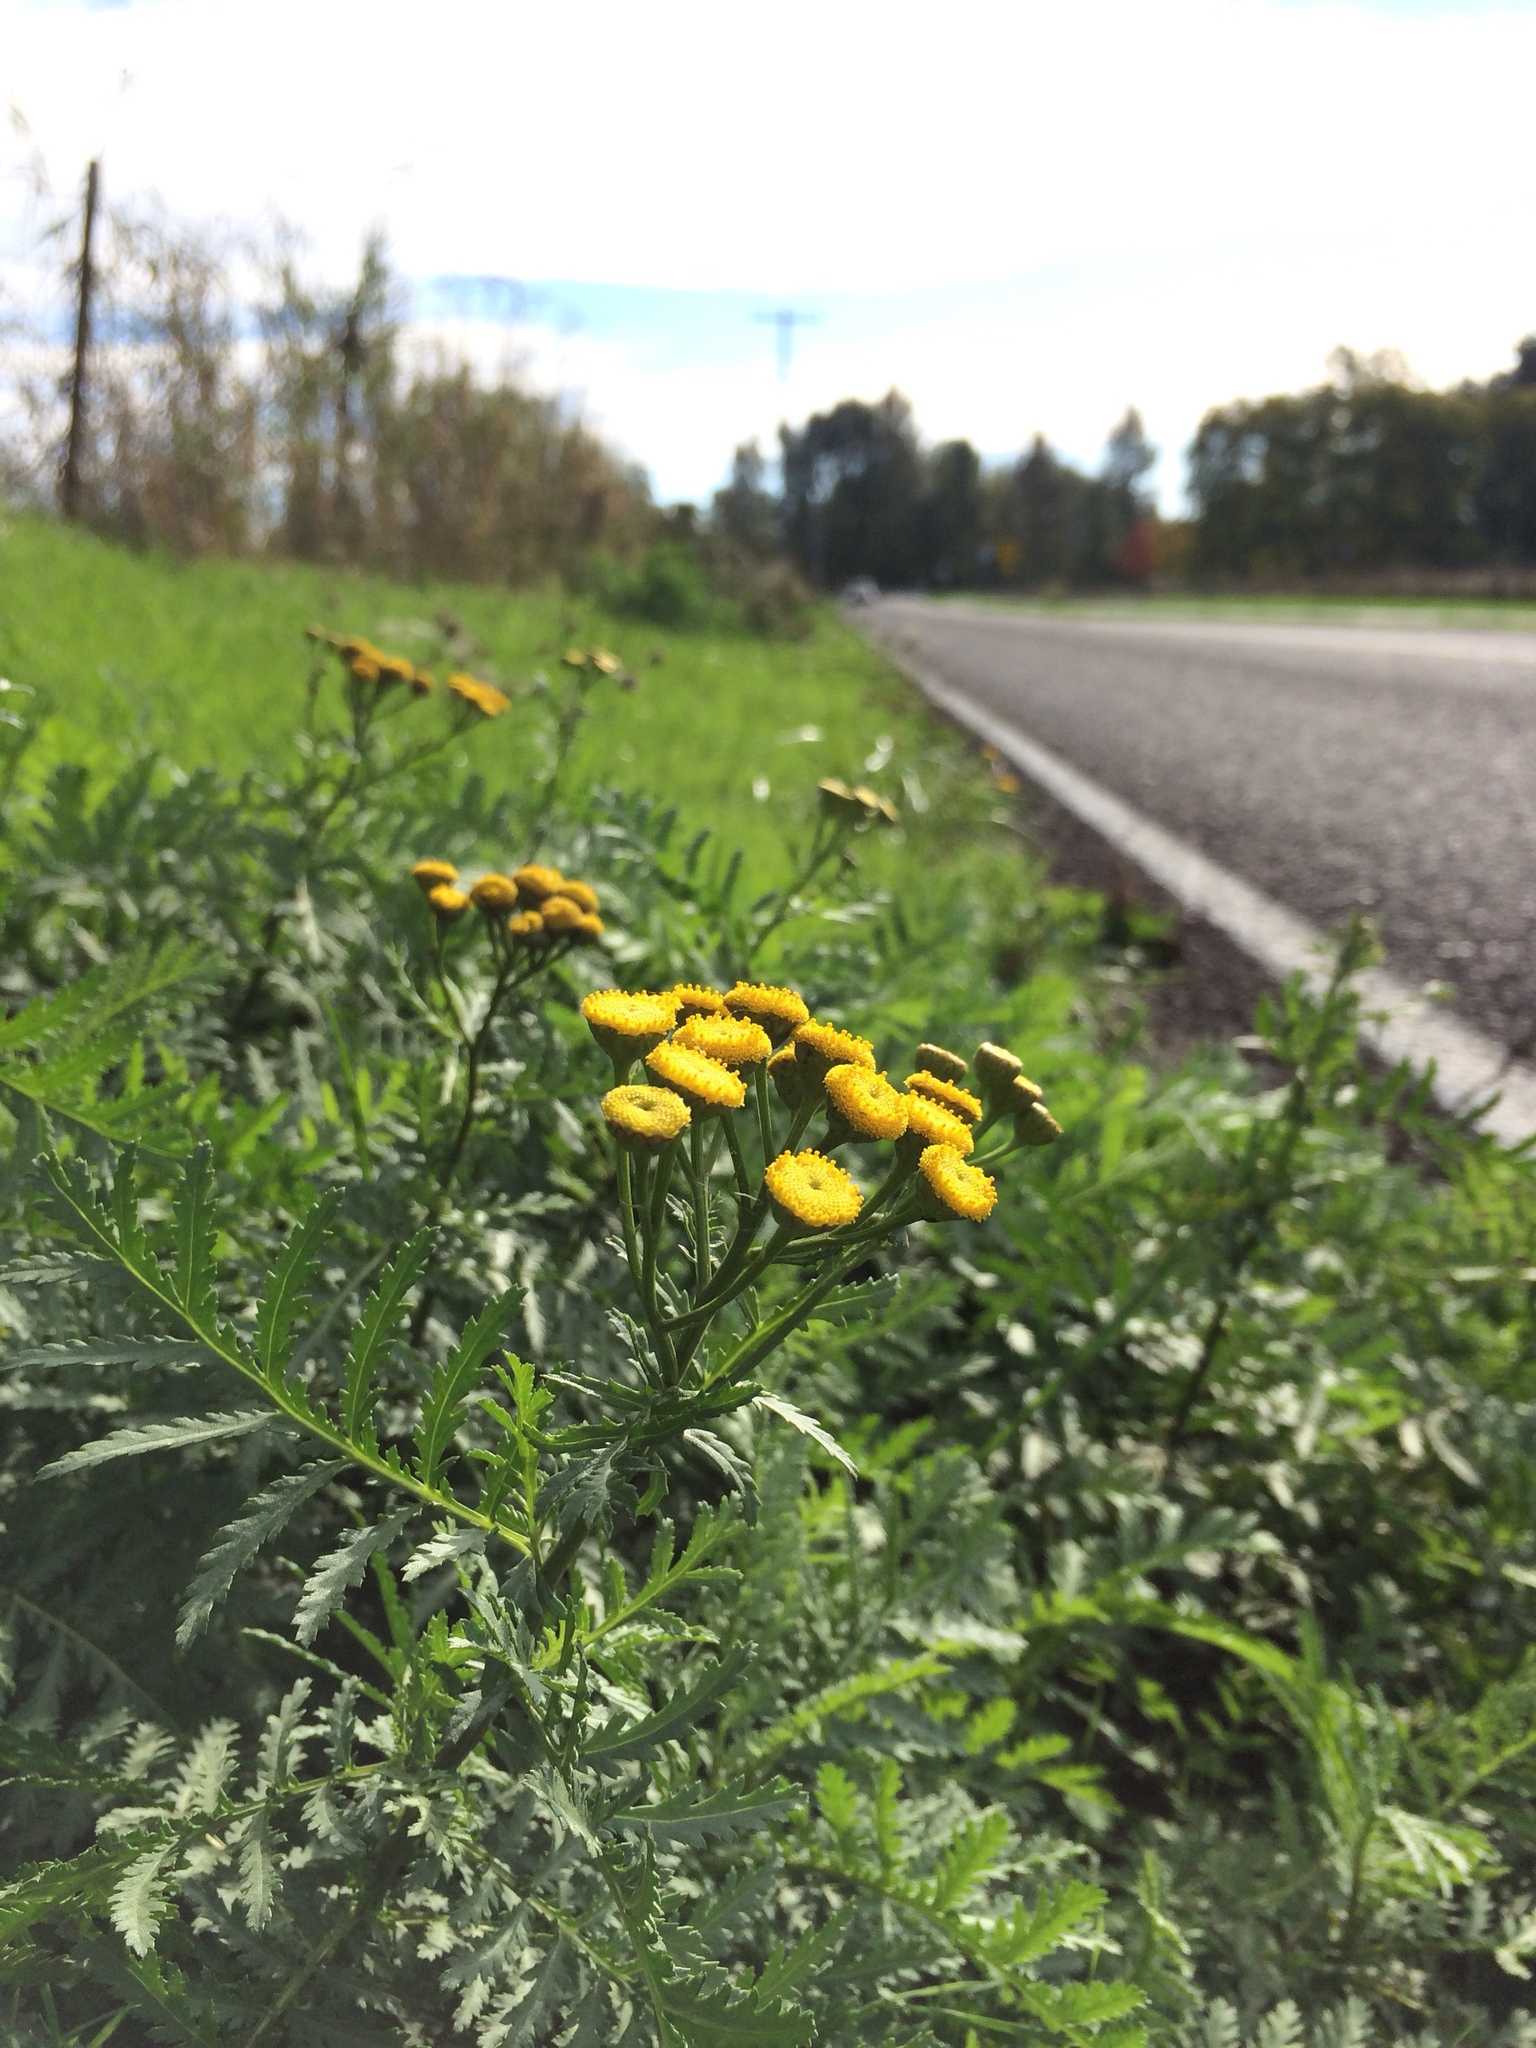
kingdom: Plantae
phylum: Tracheophyta
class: Magnoliopsida
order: Asterales
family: Asteraceae
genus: Tanacetum
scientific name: Tanacetum vulgare
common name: Common tansy
